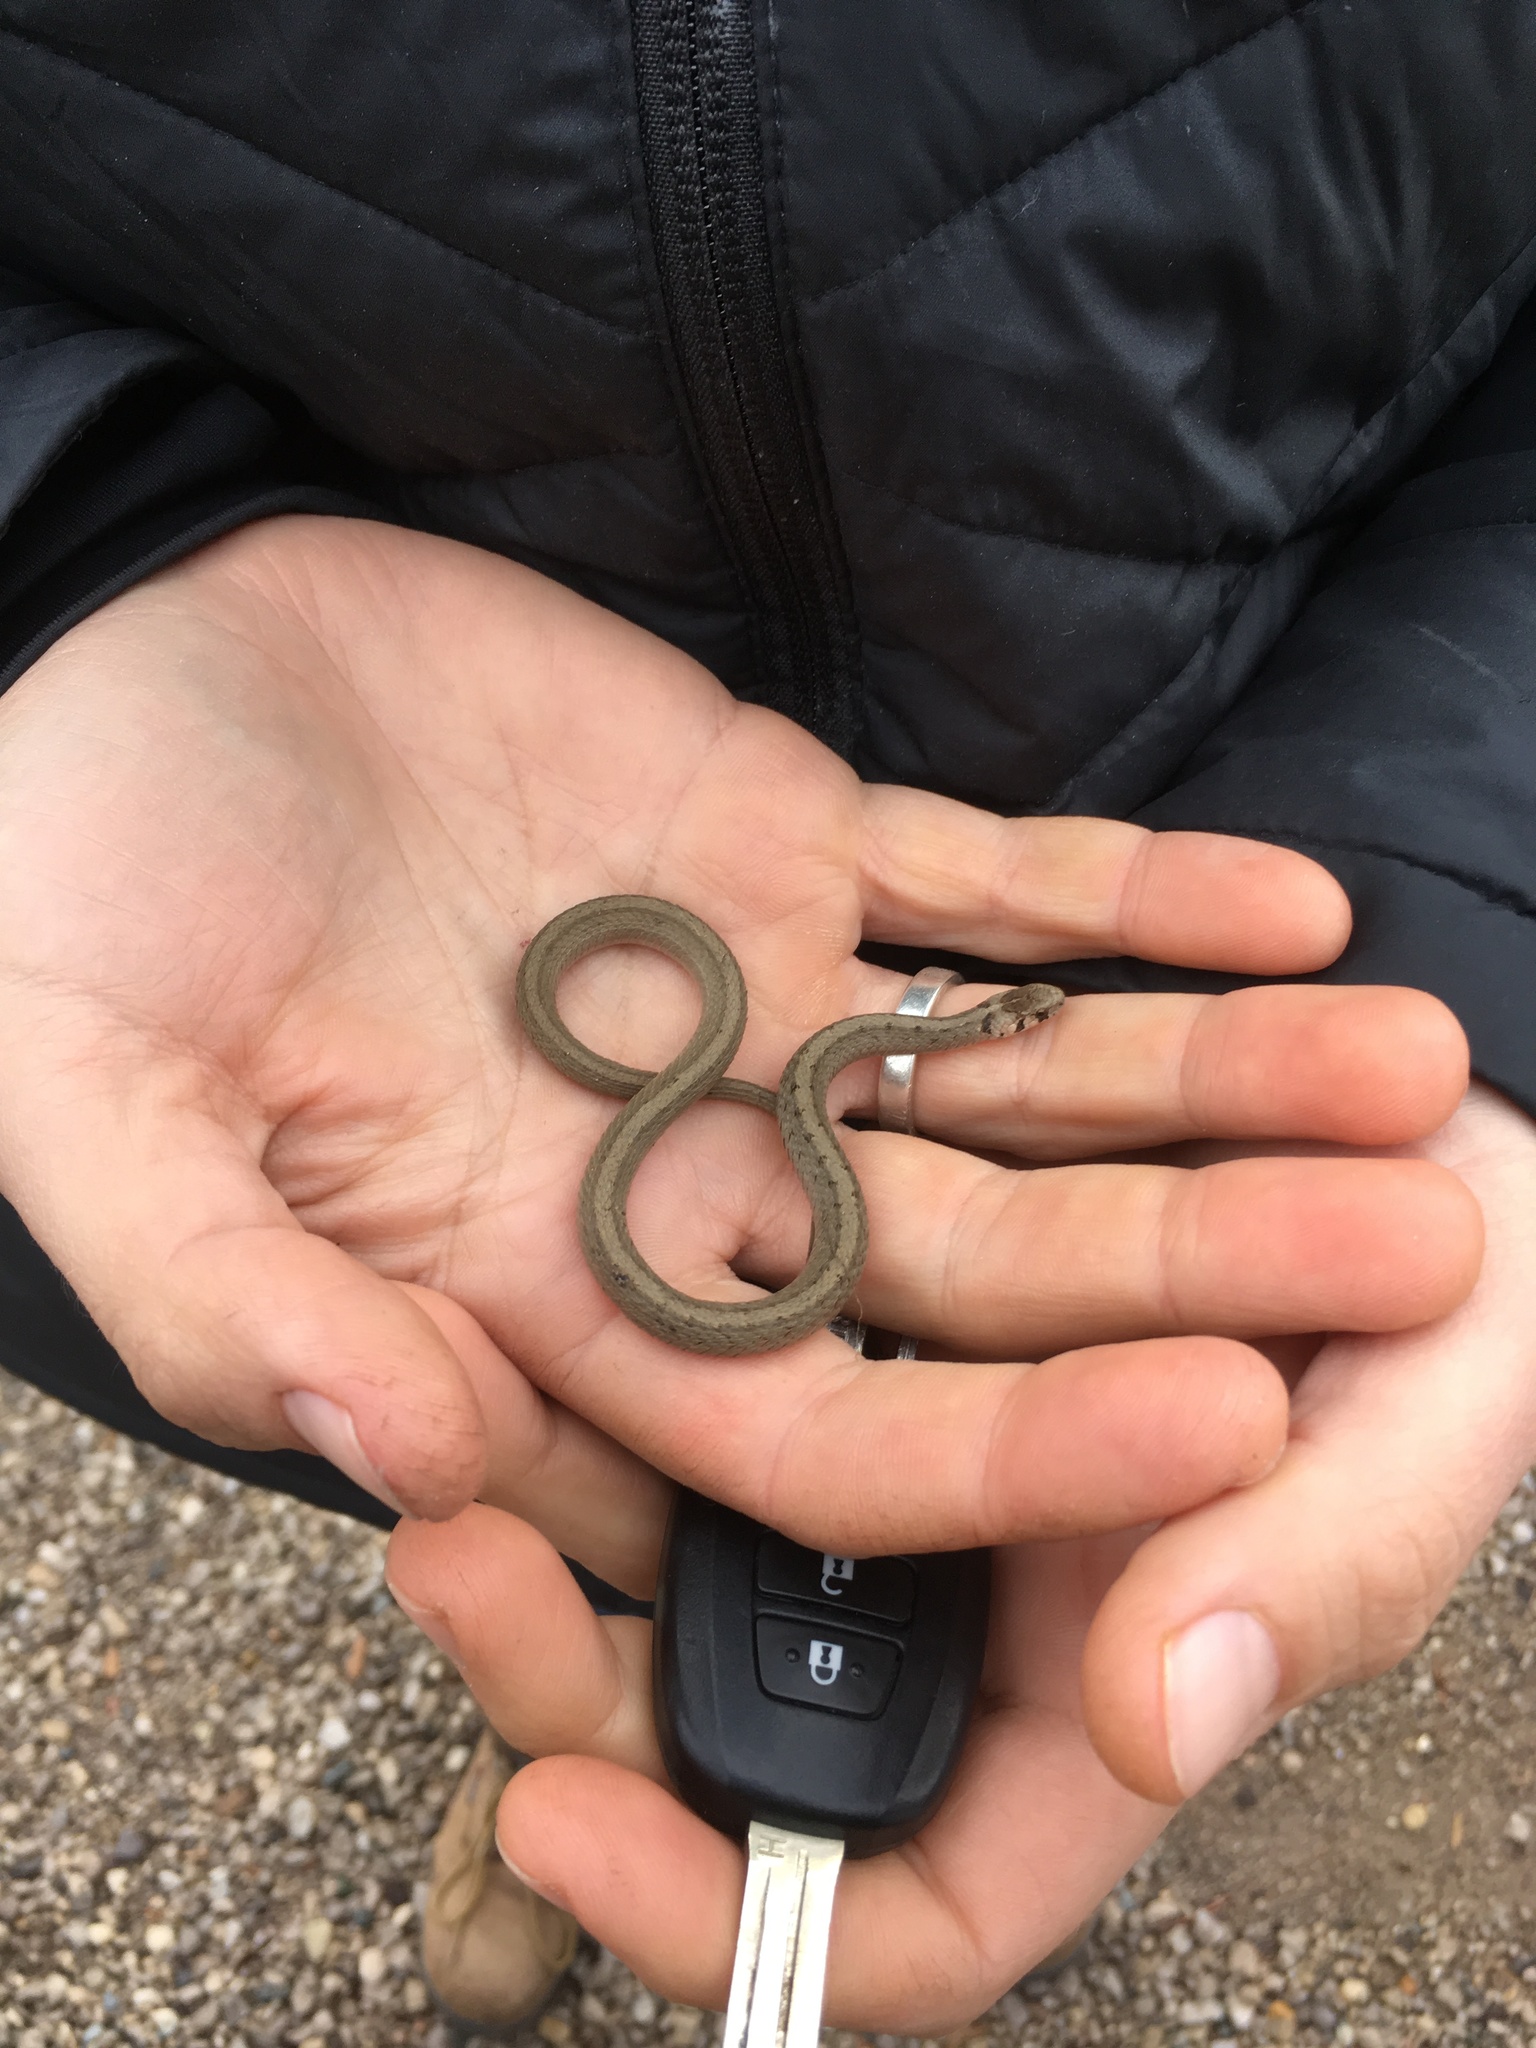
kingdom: Animalia
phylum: Chordata
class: Squamata
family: Colubridae
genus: Storeria
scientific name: Storeria dekayi
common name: (dekay’s) brown snake
